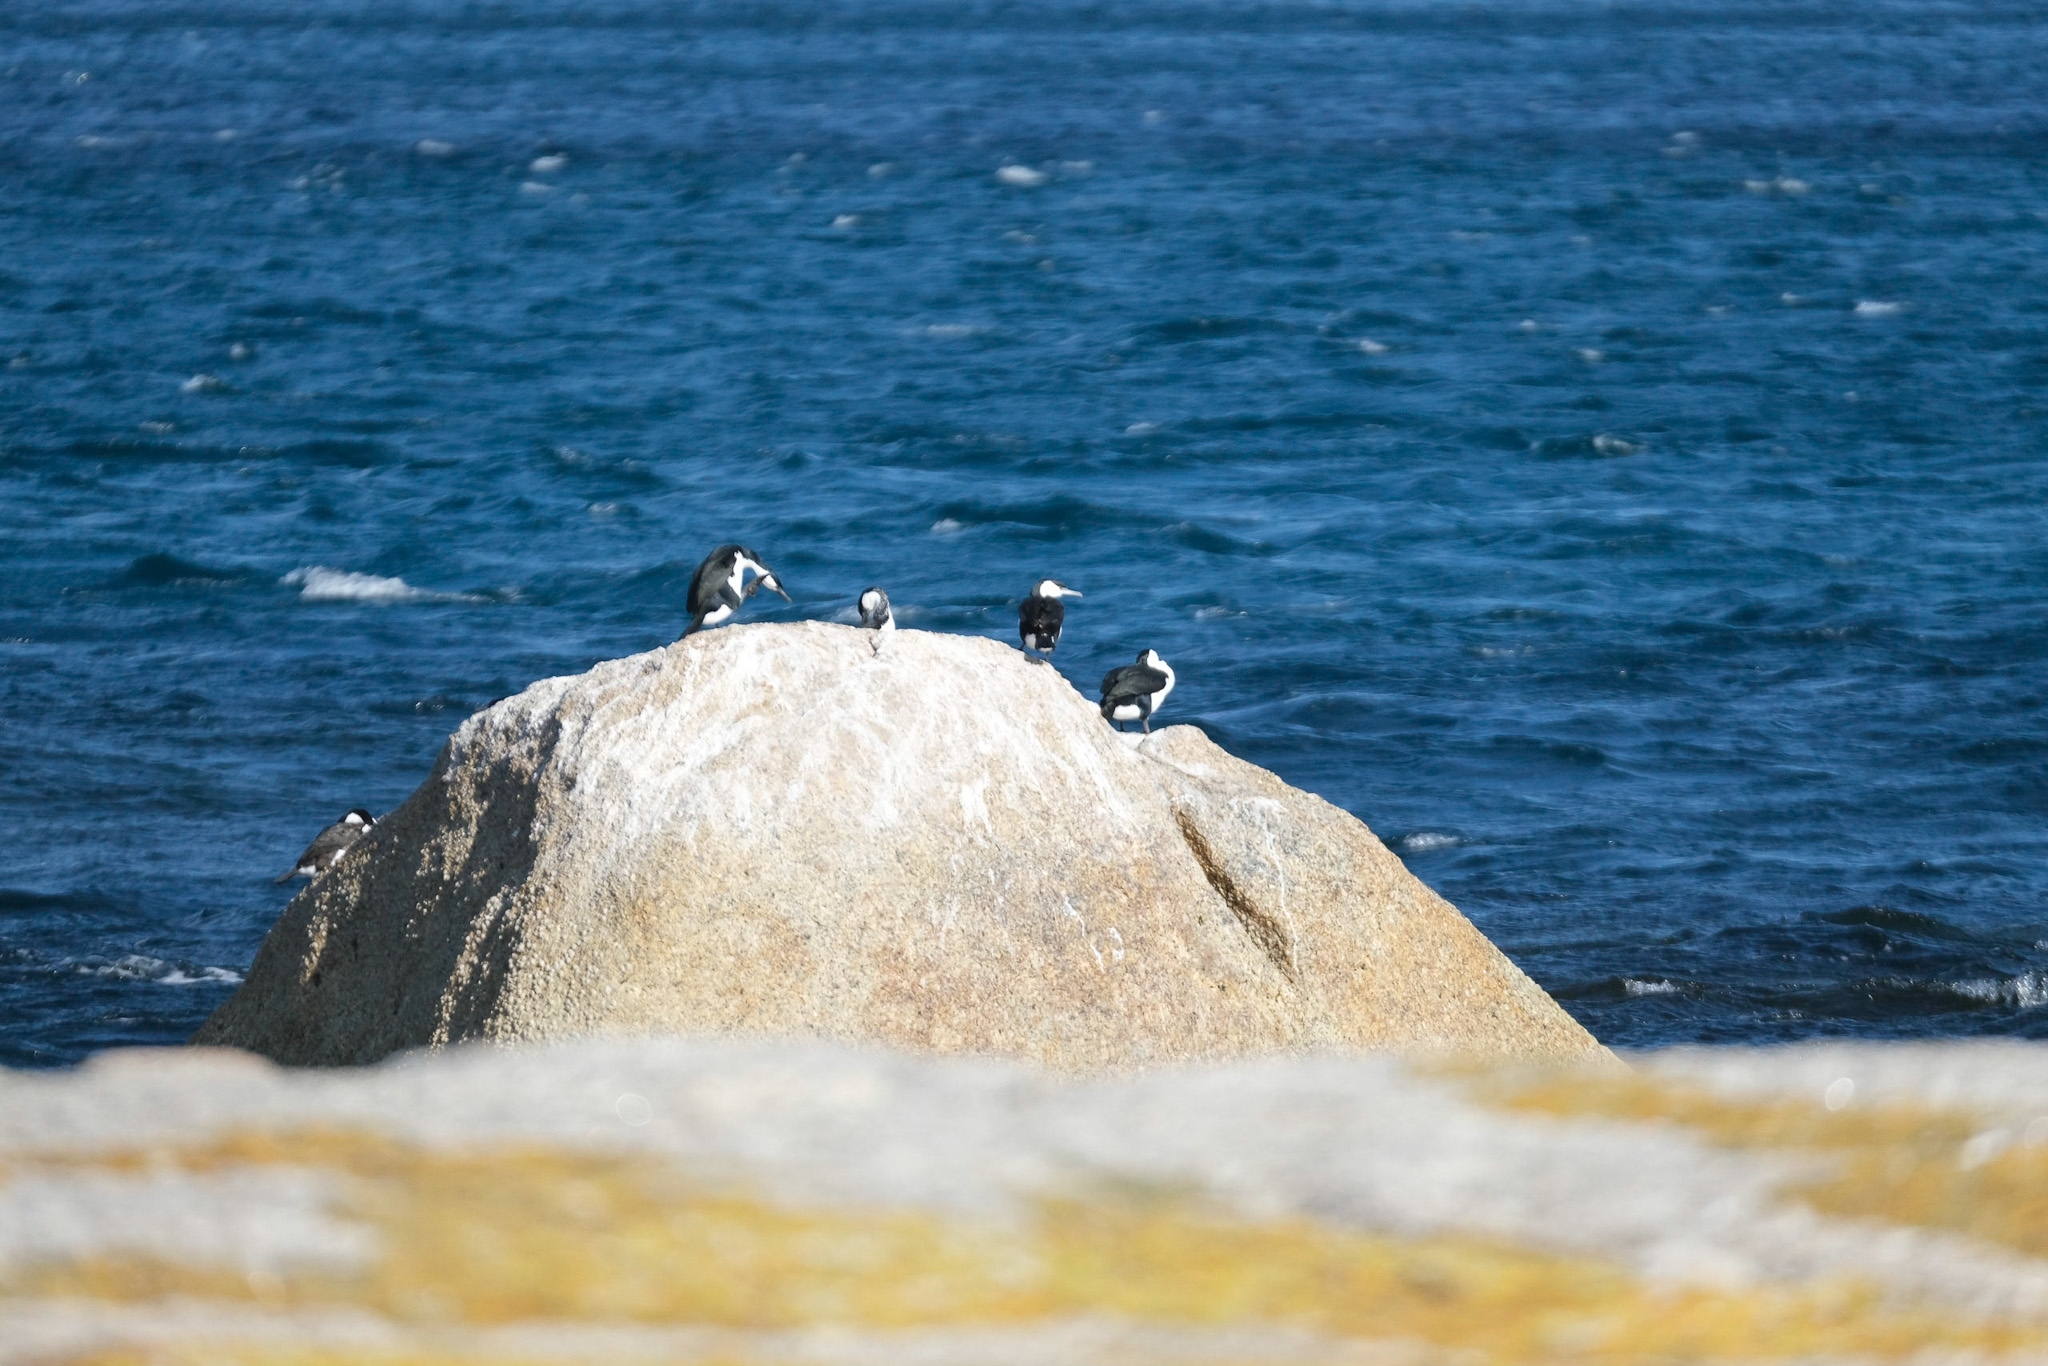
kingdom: Animalia
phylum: Chordata
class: Aves
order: Suliformes
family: Phalacrocoracidae
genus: Phalacrocorax
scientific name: Phalacrocorax fuscescens
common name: Black-faced cormorant
